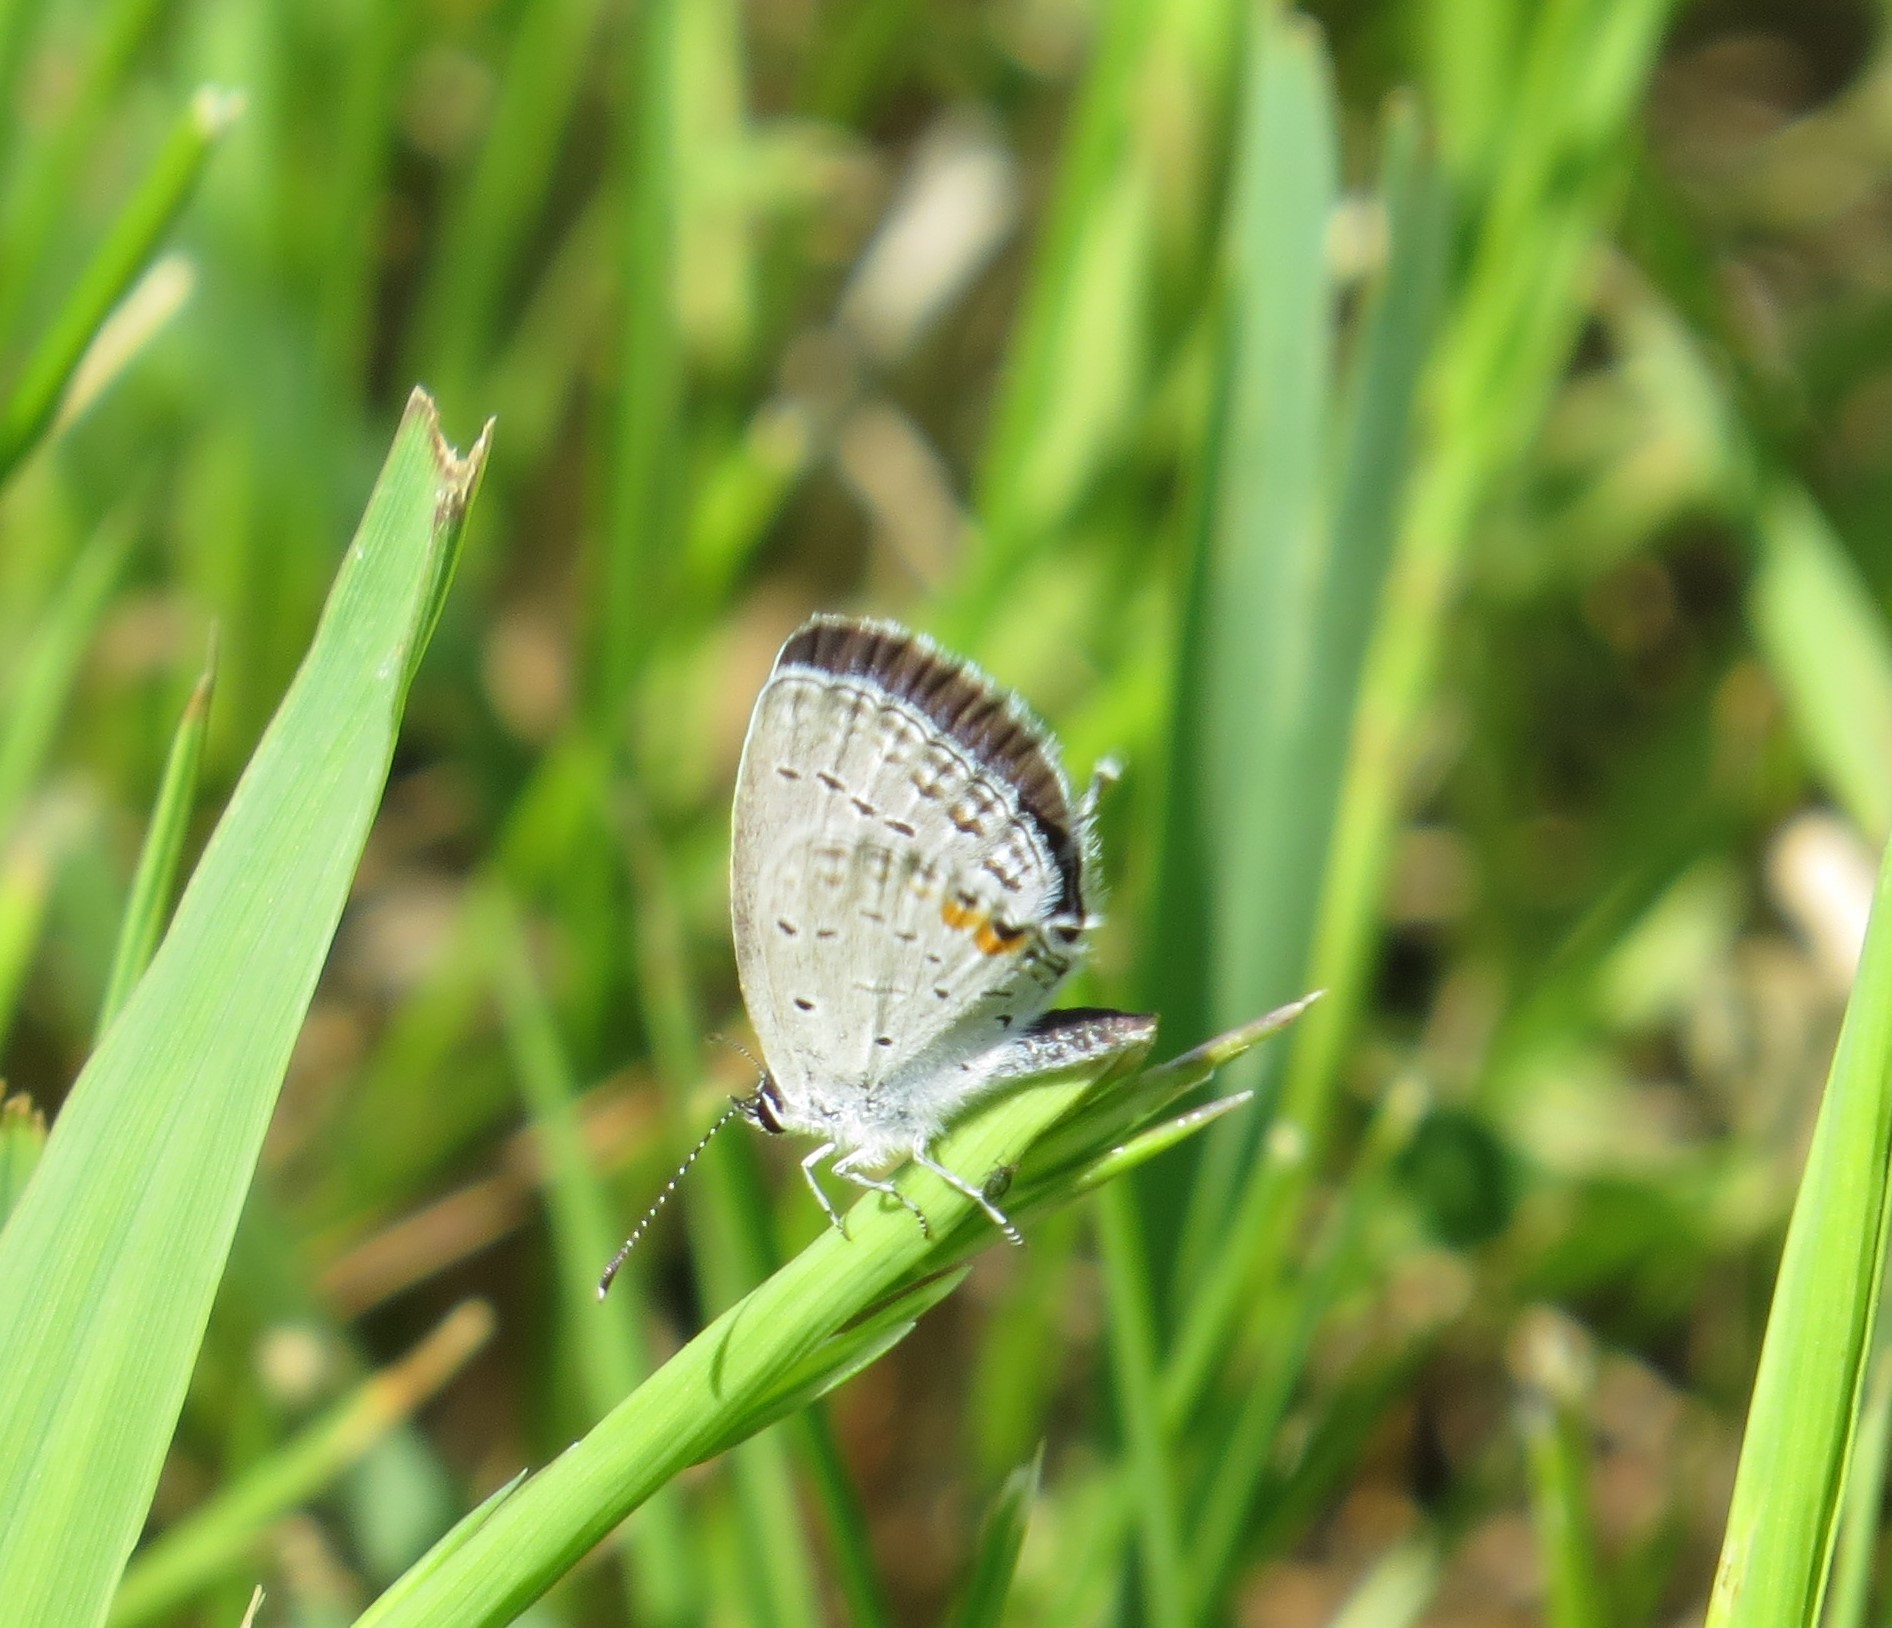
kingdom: Animalia
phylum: Arthropoda
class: Insecta
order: Lepidoptera
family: Lycaenidae
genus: Elkalyce
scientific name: Elkalyce comyntas
